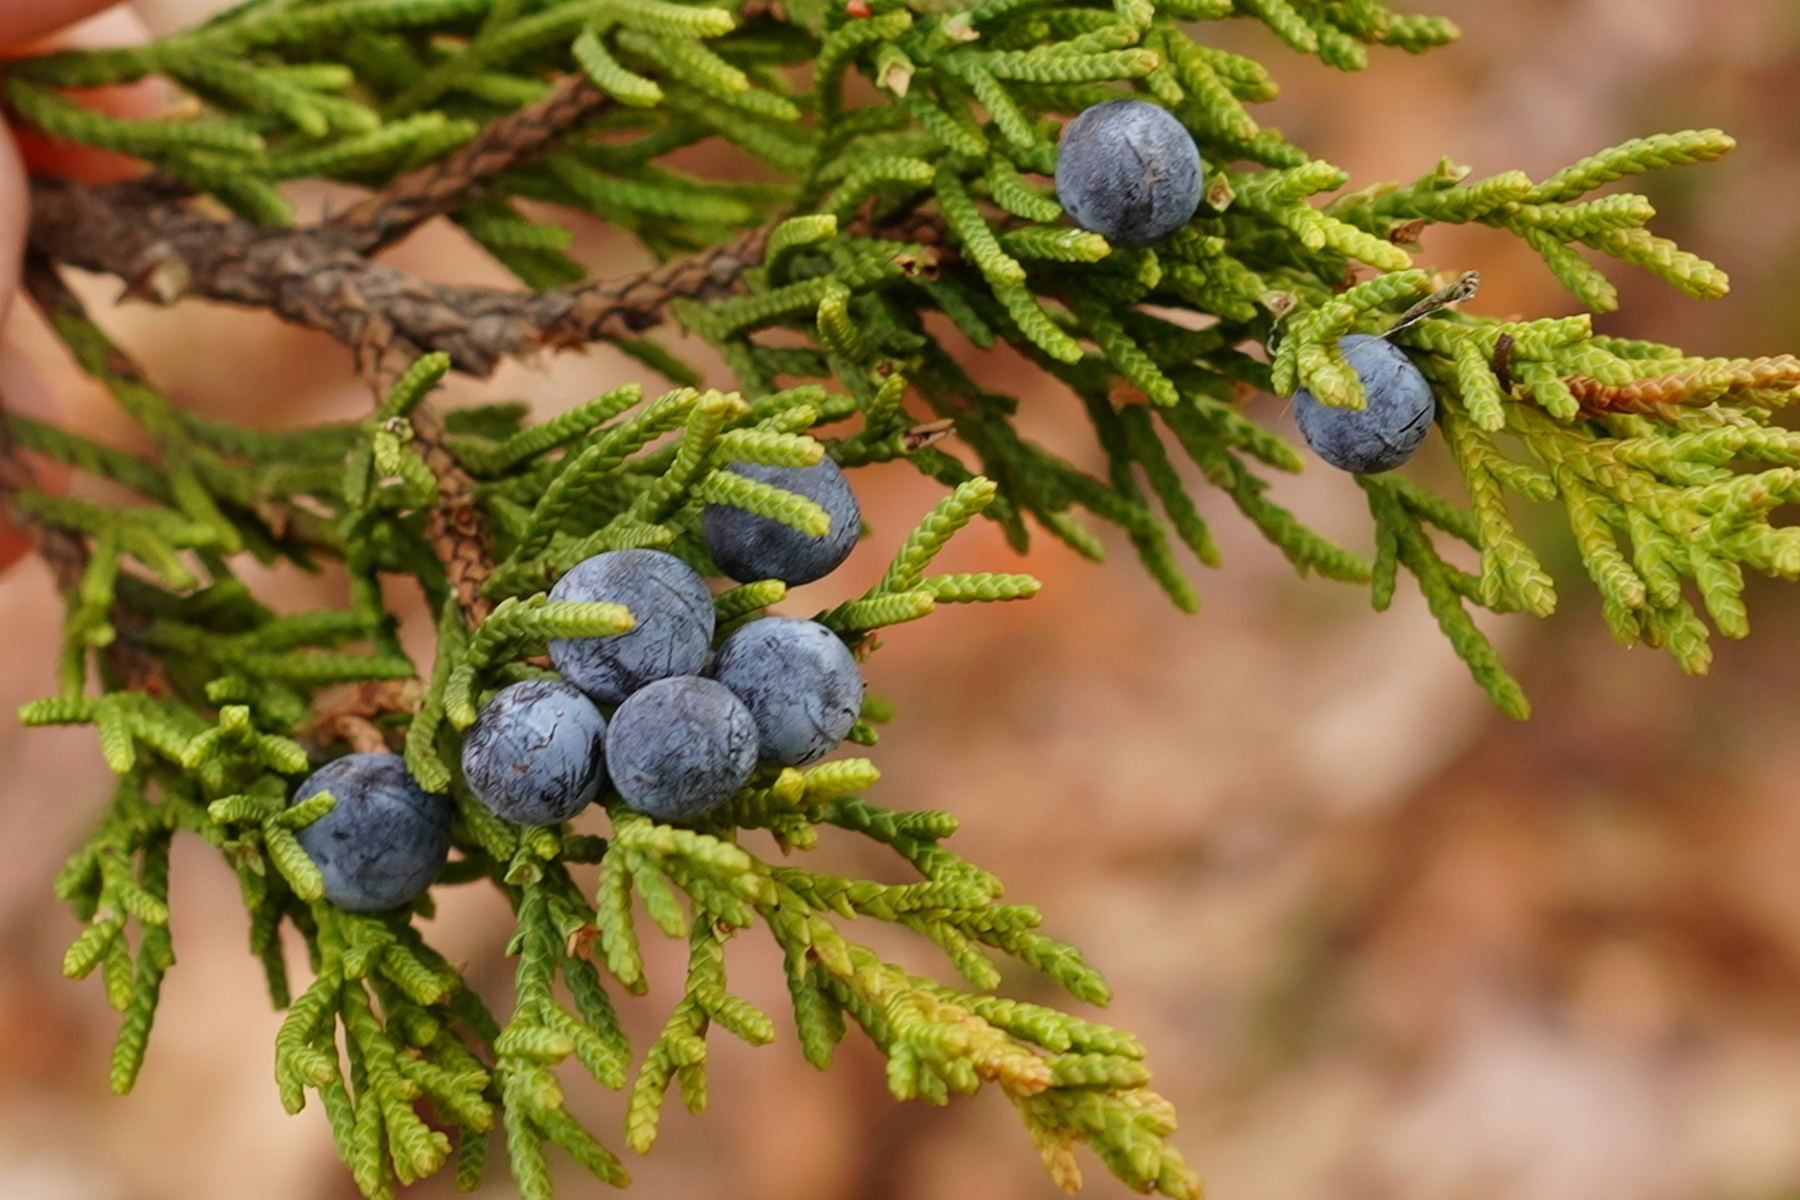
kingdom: Plantae
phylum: Tracheophyta
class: Pinopsida
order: Pinales
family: Cupressaceae
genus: Juniperus
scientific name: Juniperus virginiana
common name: Red juniper
